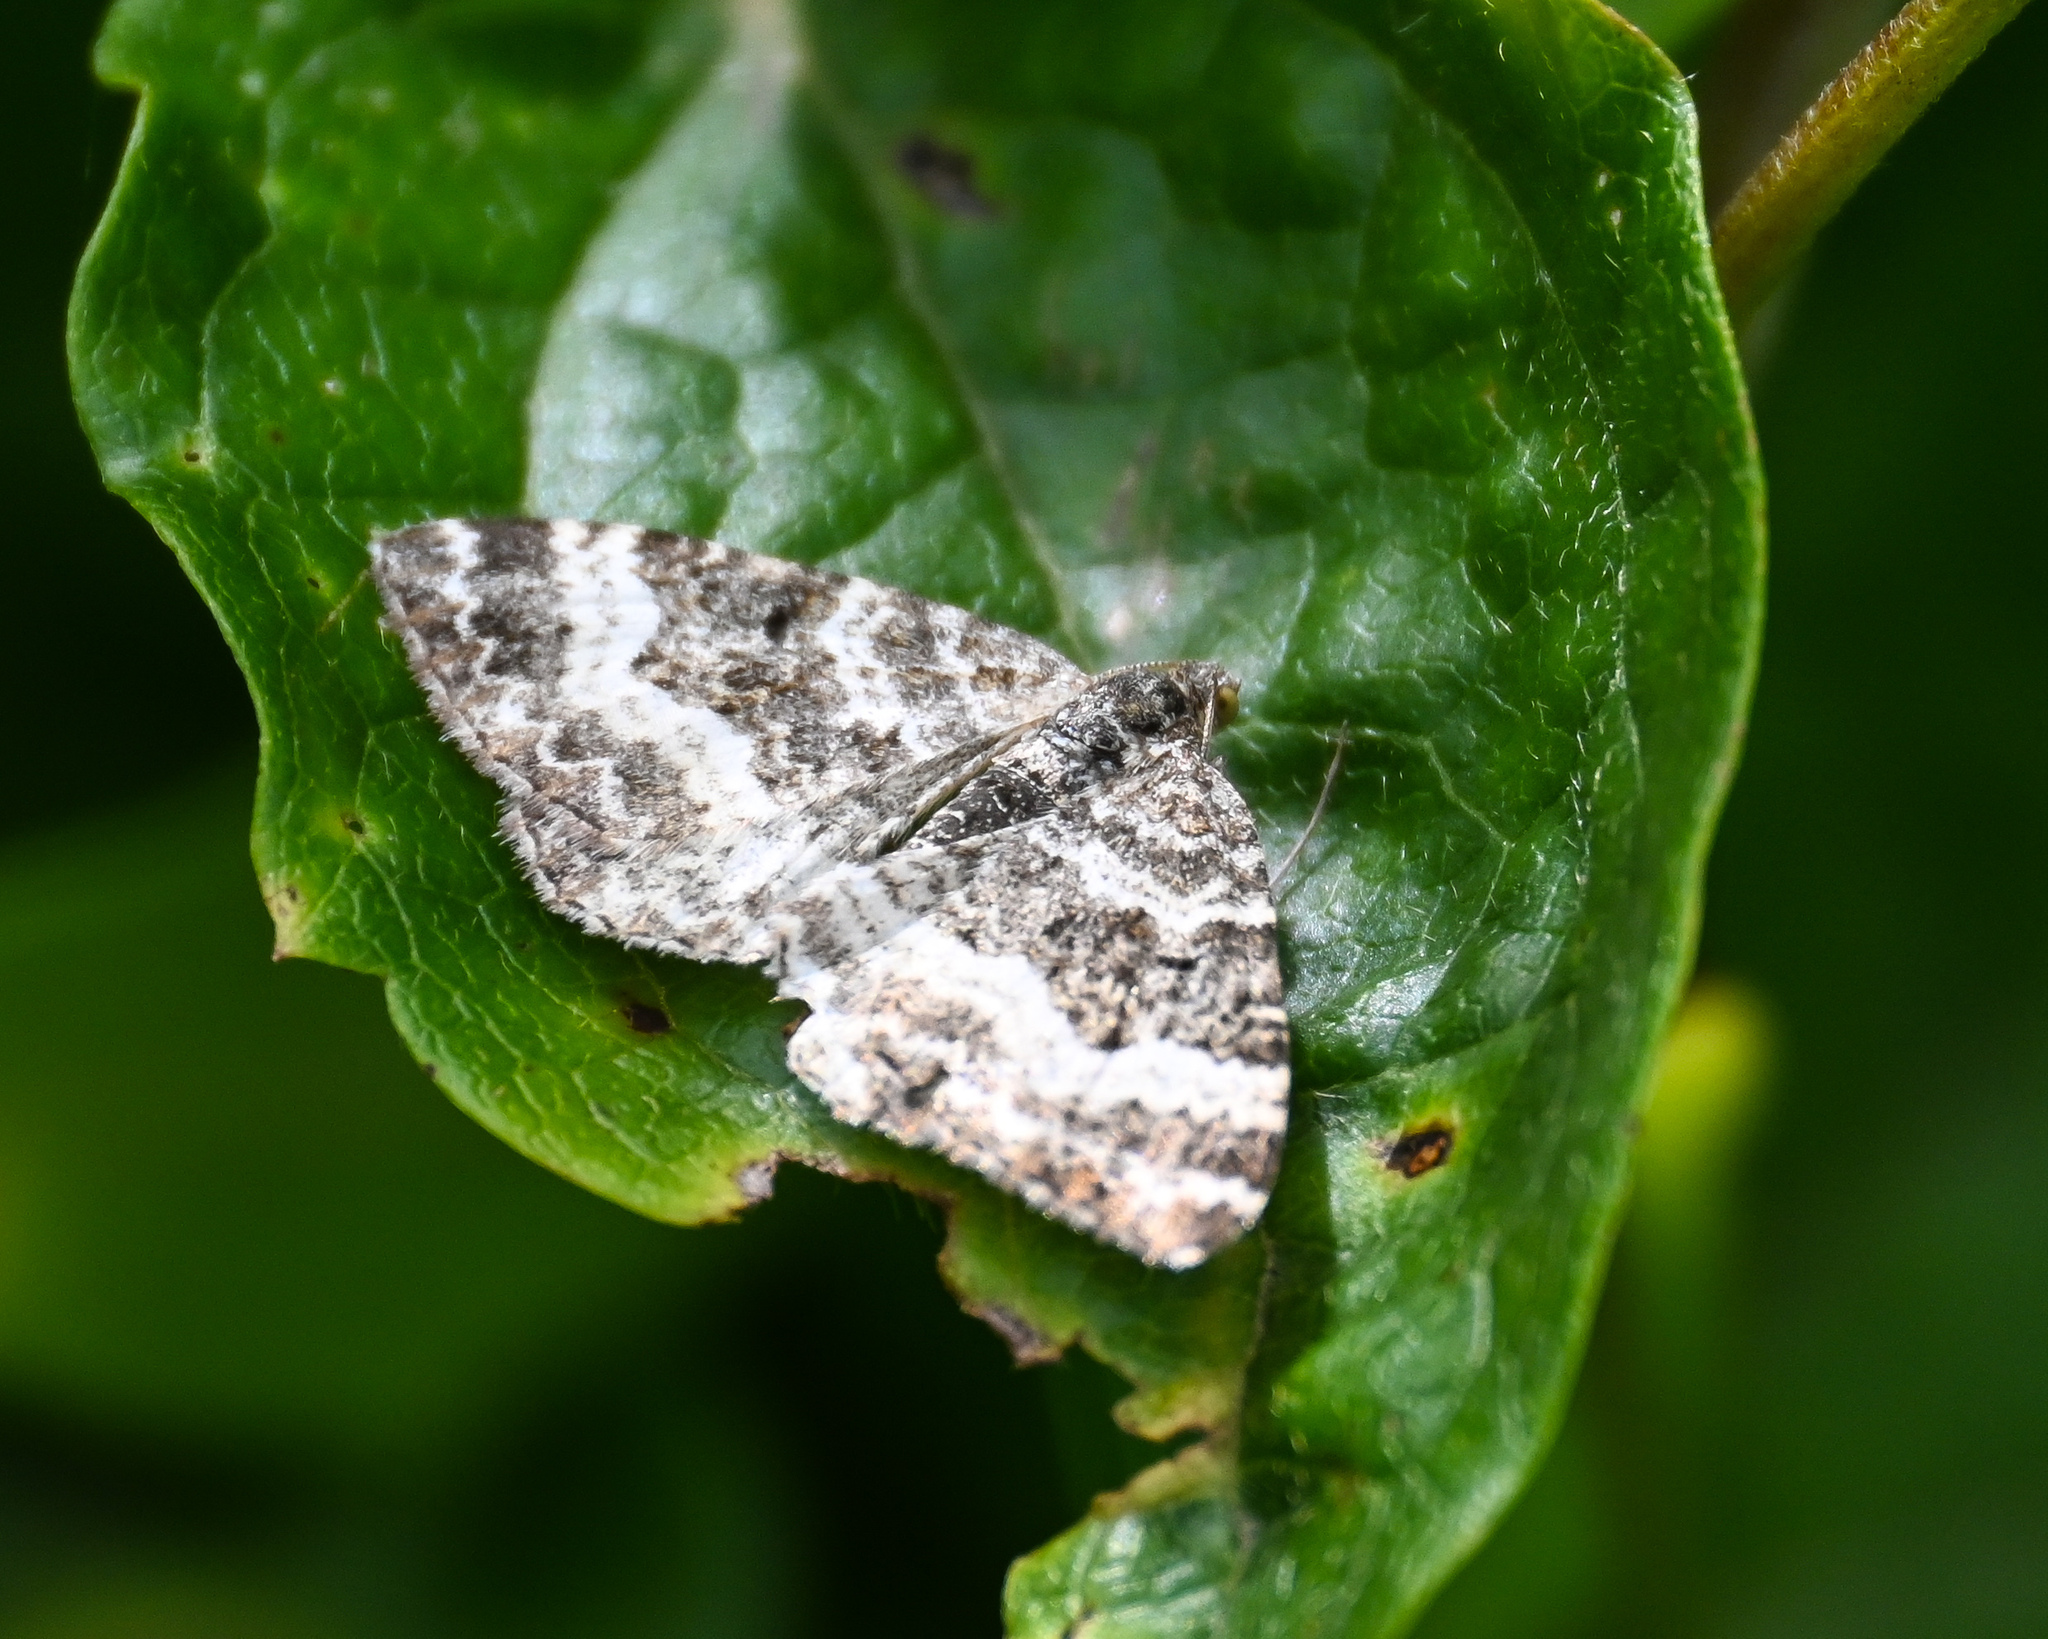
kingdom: Animalia
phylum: Arthropoda
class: Insecta
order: Lepidoptera
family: Geometridae
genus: Epirrhoe
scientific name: Epirrhoe alternata
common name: Common carpet
